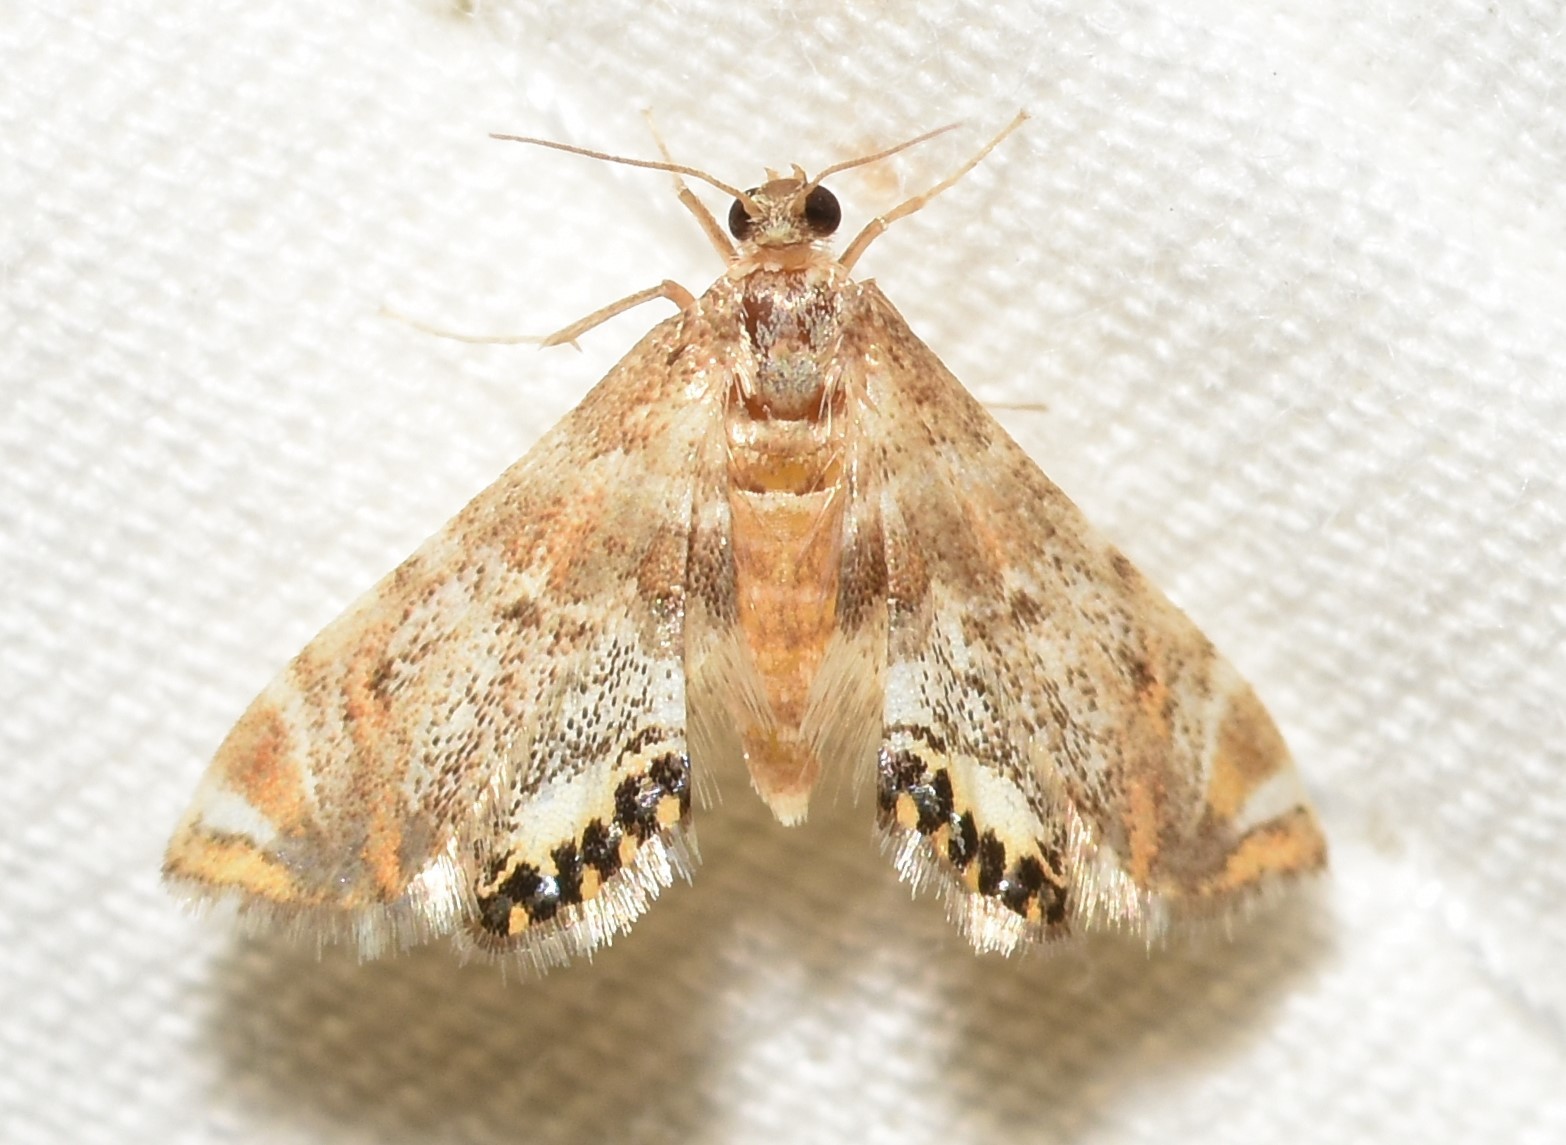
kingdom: Animalia
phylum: Arthropoda
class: Insecta
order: Lepidoptera
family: Crambidae
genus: Petrophila
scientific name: Petrophila fulicalis
